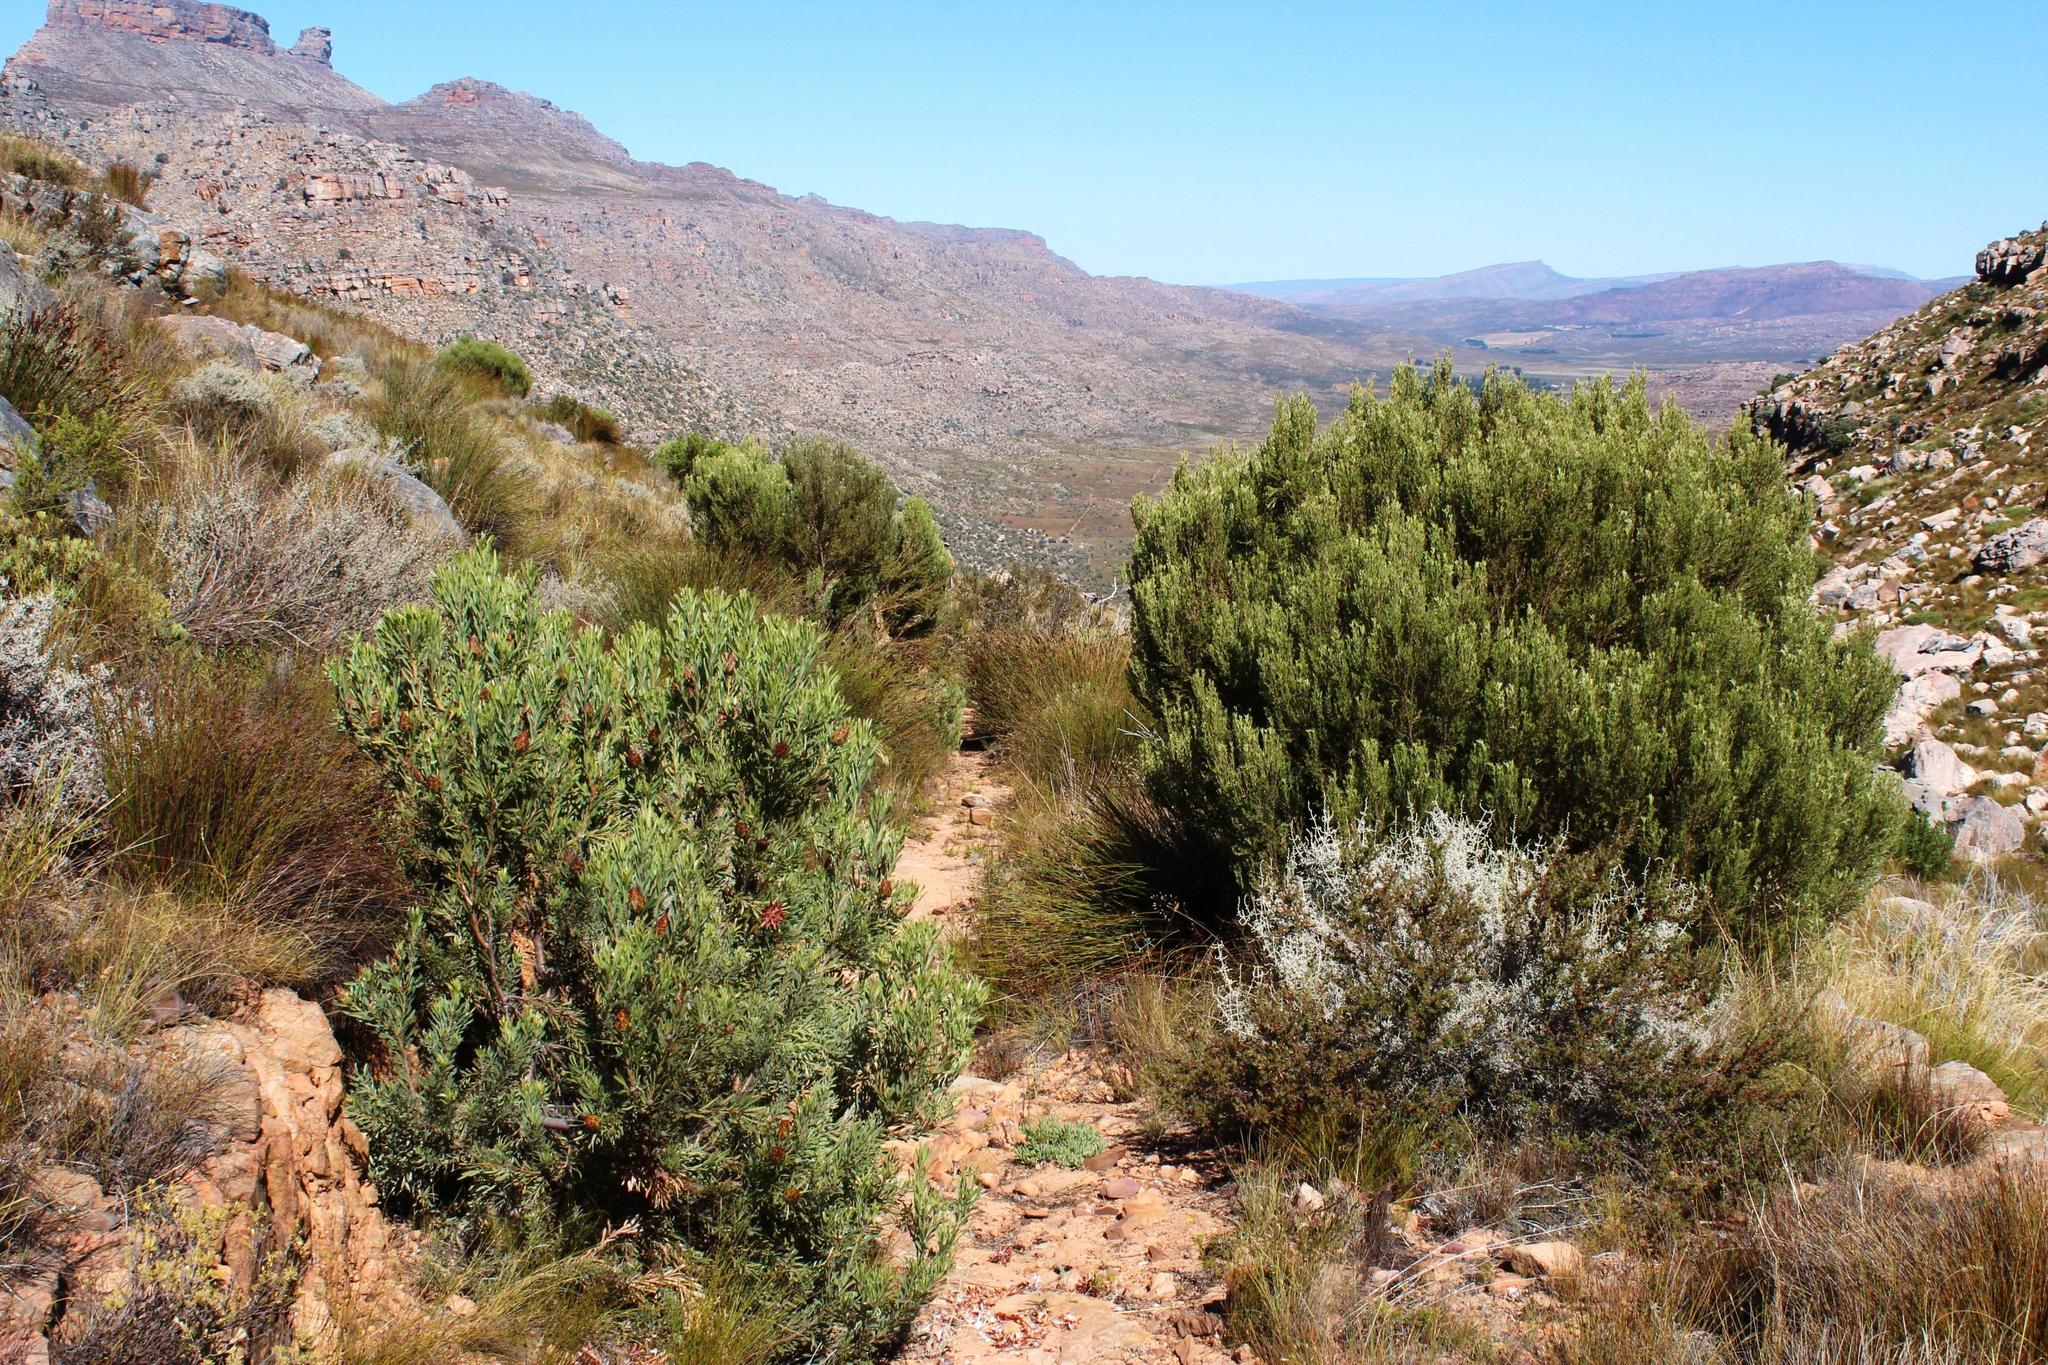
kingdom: Plantae
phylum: Tracheophyta
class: Magnoliopsida
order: Proteales
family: Proteaceae
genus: Leucadendron
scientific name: Leucadendron rubrum
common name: Spinning top
